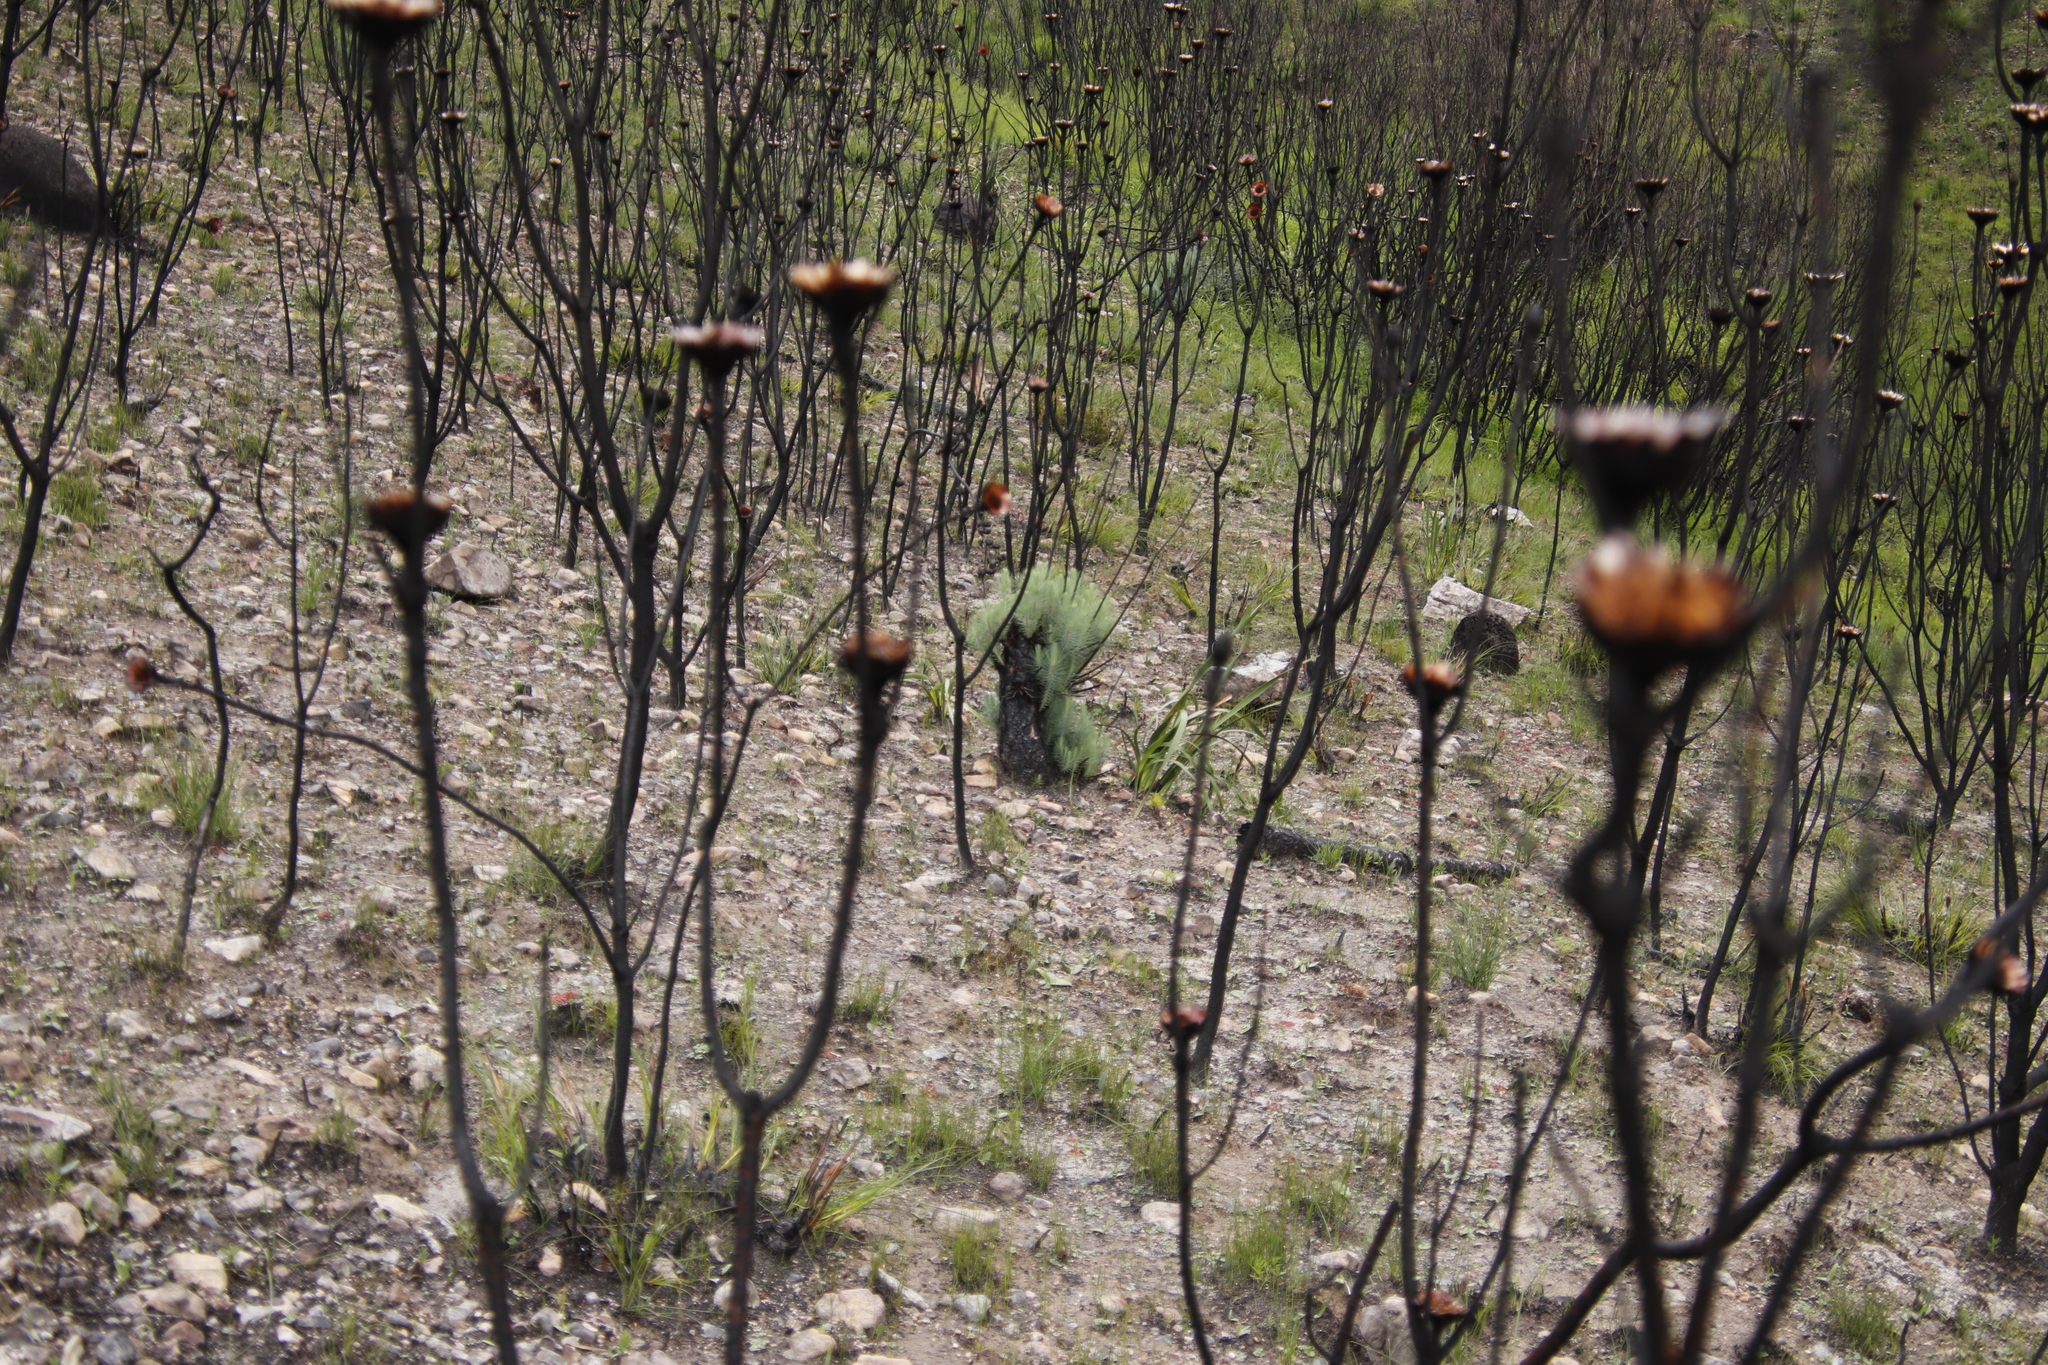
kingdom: Plantae
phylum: Tracheophyta
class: Pinopsida
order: Pinales
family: Pinaceae
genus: Pinus
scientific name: Pinus canariensis
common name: Canary islands pine
